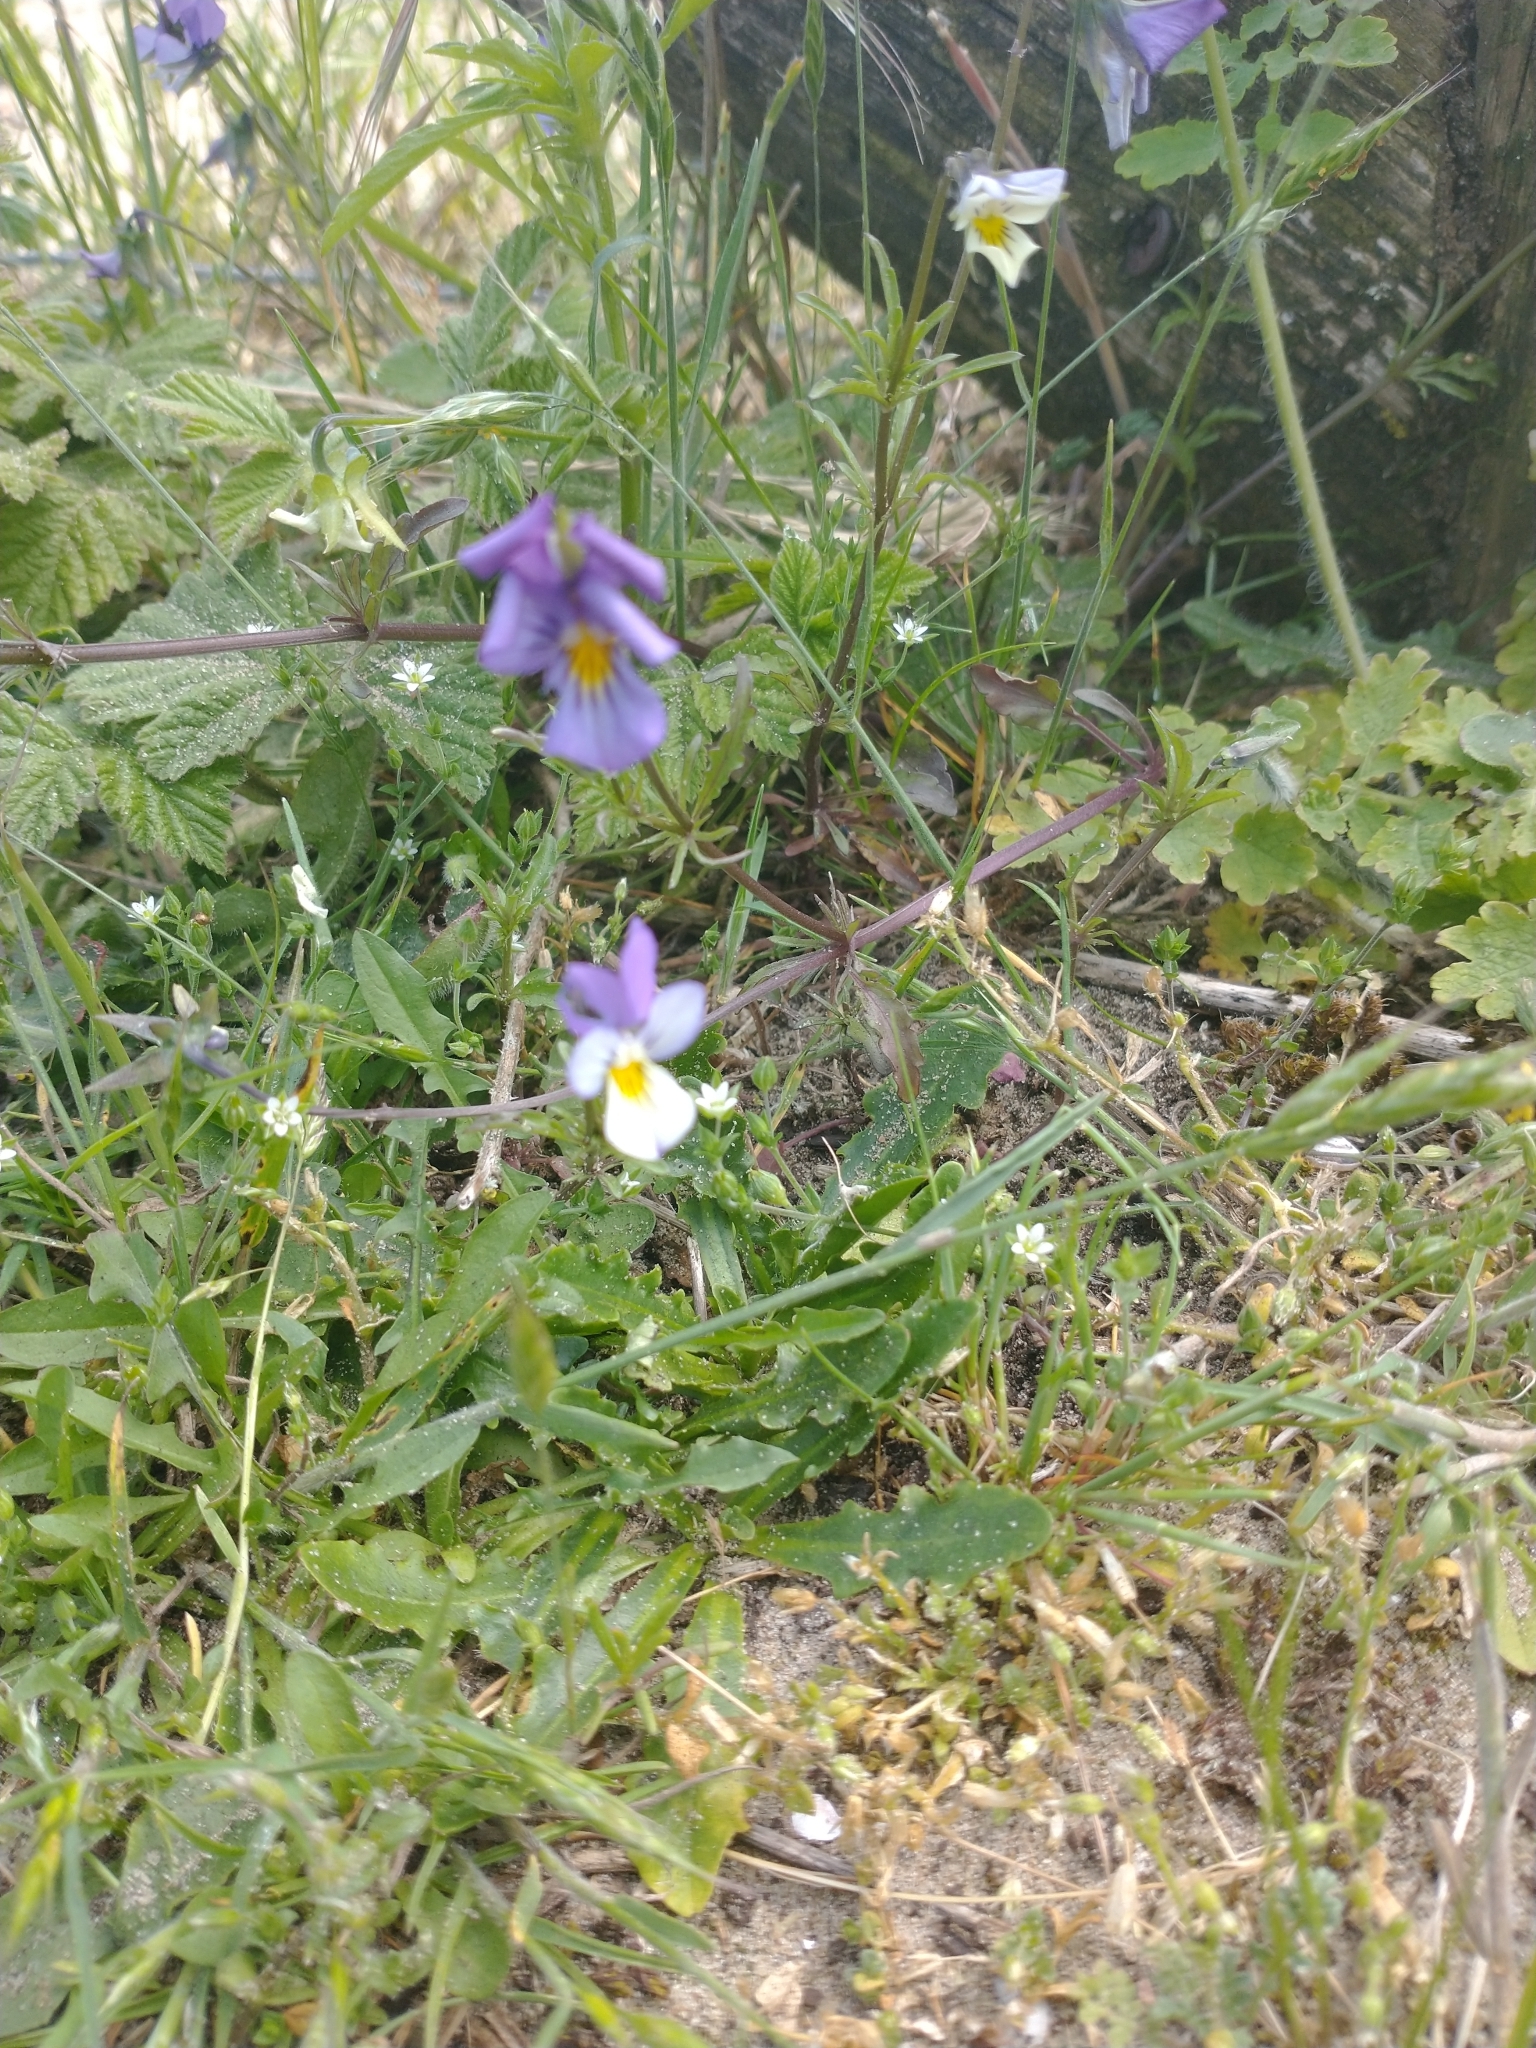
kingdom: Plantae
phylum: Tracheophyta
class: Magnoliopsida
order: Malpighiales
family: Violaceae
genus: Viola
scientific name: Viola tricolor
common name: Pansy
